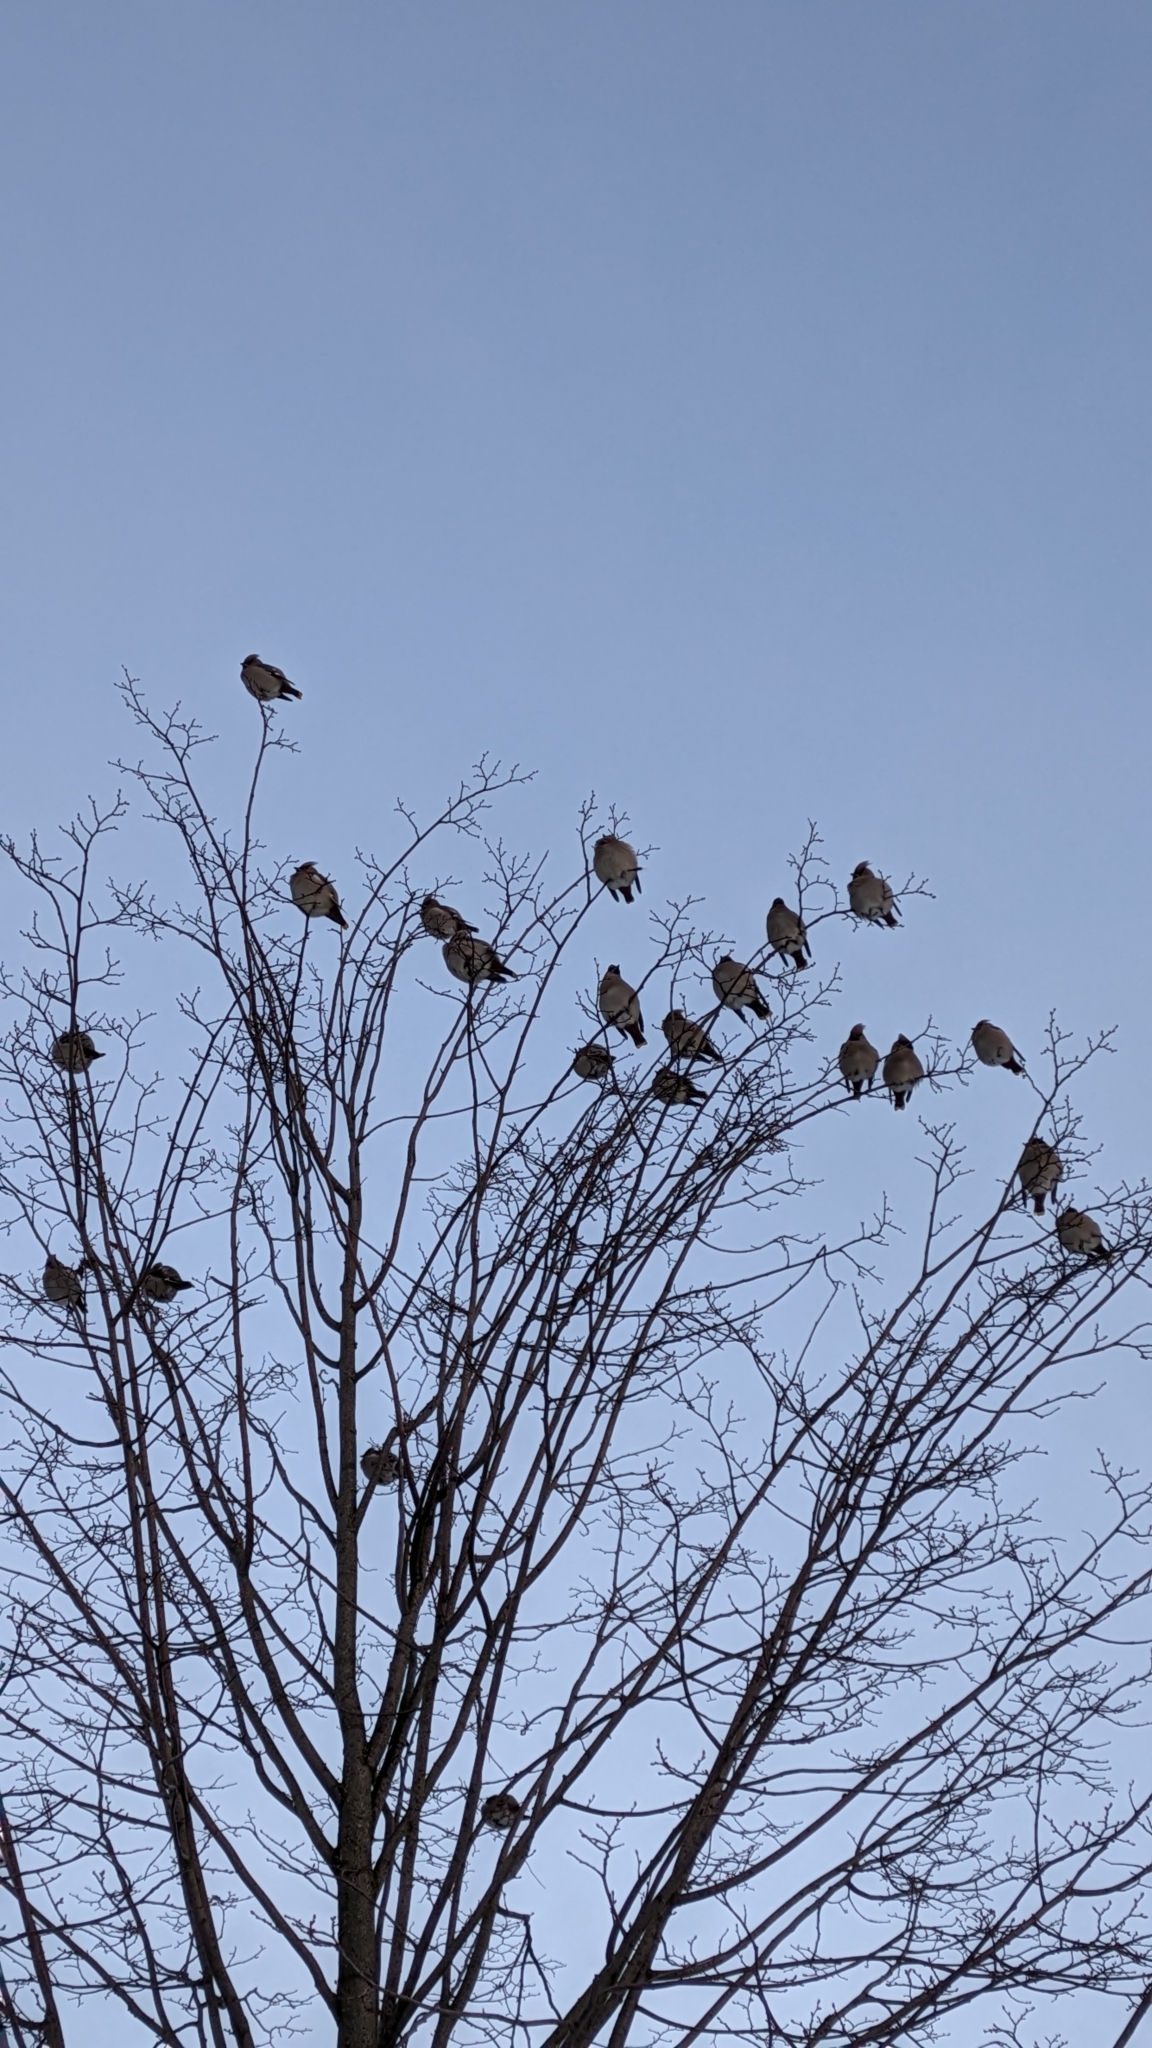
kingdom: Animalia
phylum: Chordata
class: Aves
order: Passeriformes
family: Bombycillidae
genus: Bombycilla
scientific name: Bombycilla garrulus
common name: Bohemian waxwing
